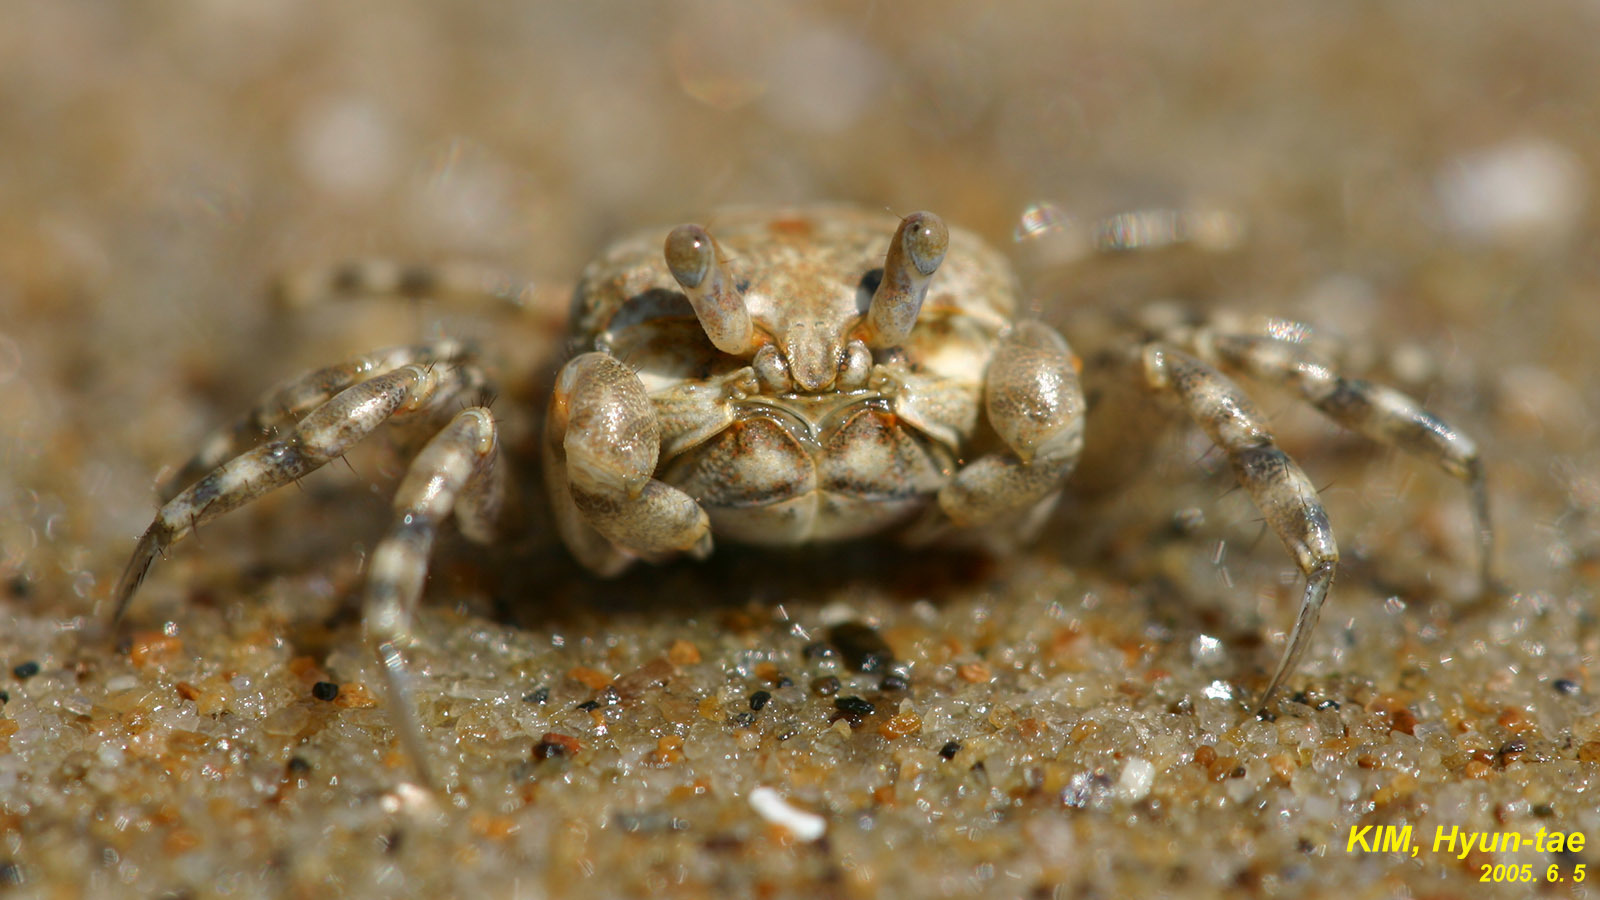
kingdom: Animalia
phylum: Arthropoda
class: Malacostraca
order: Decapoda
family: Dotillidae
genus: Scopimera
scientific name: Scopimera globosa
